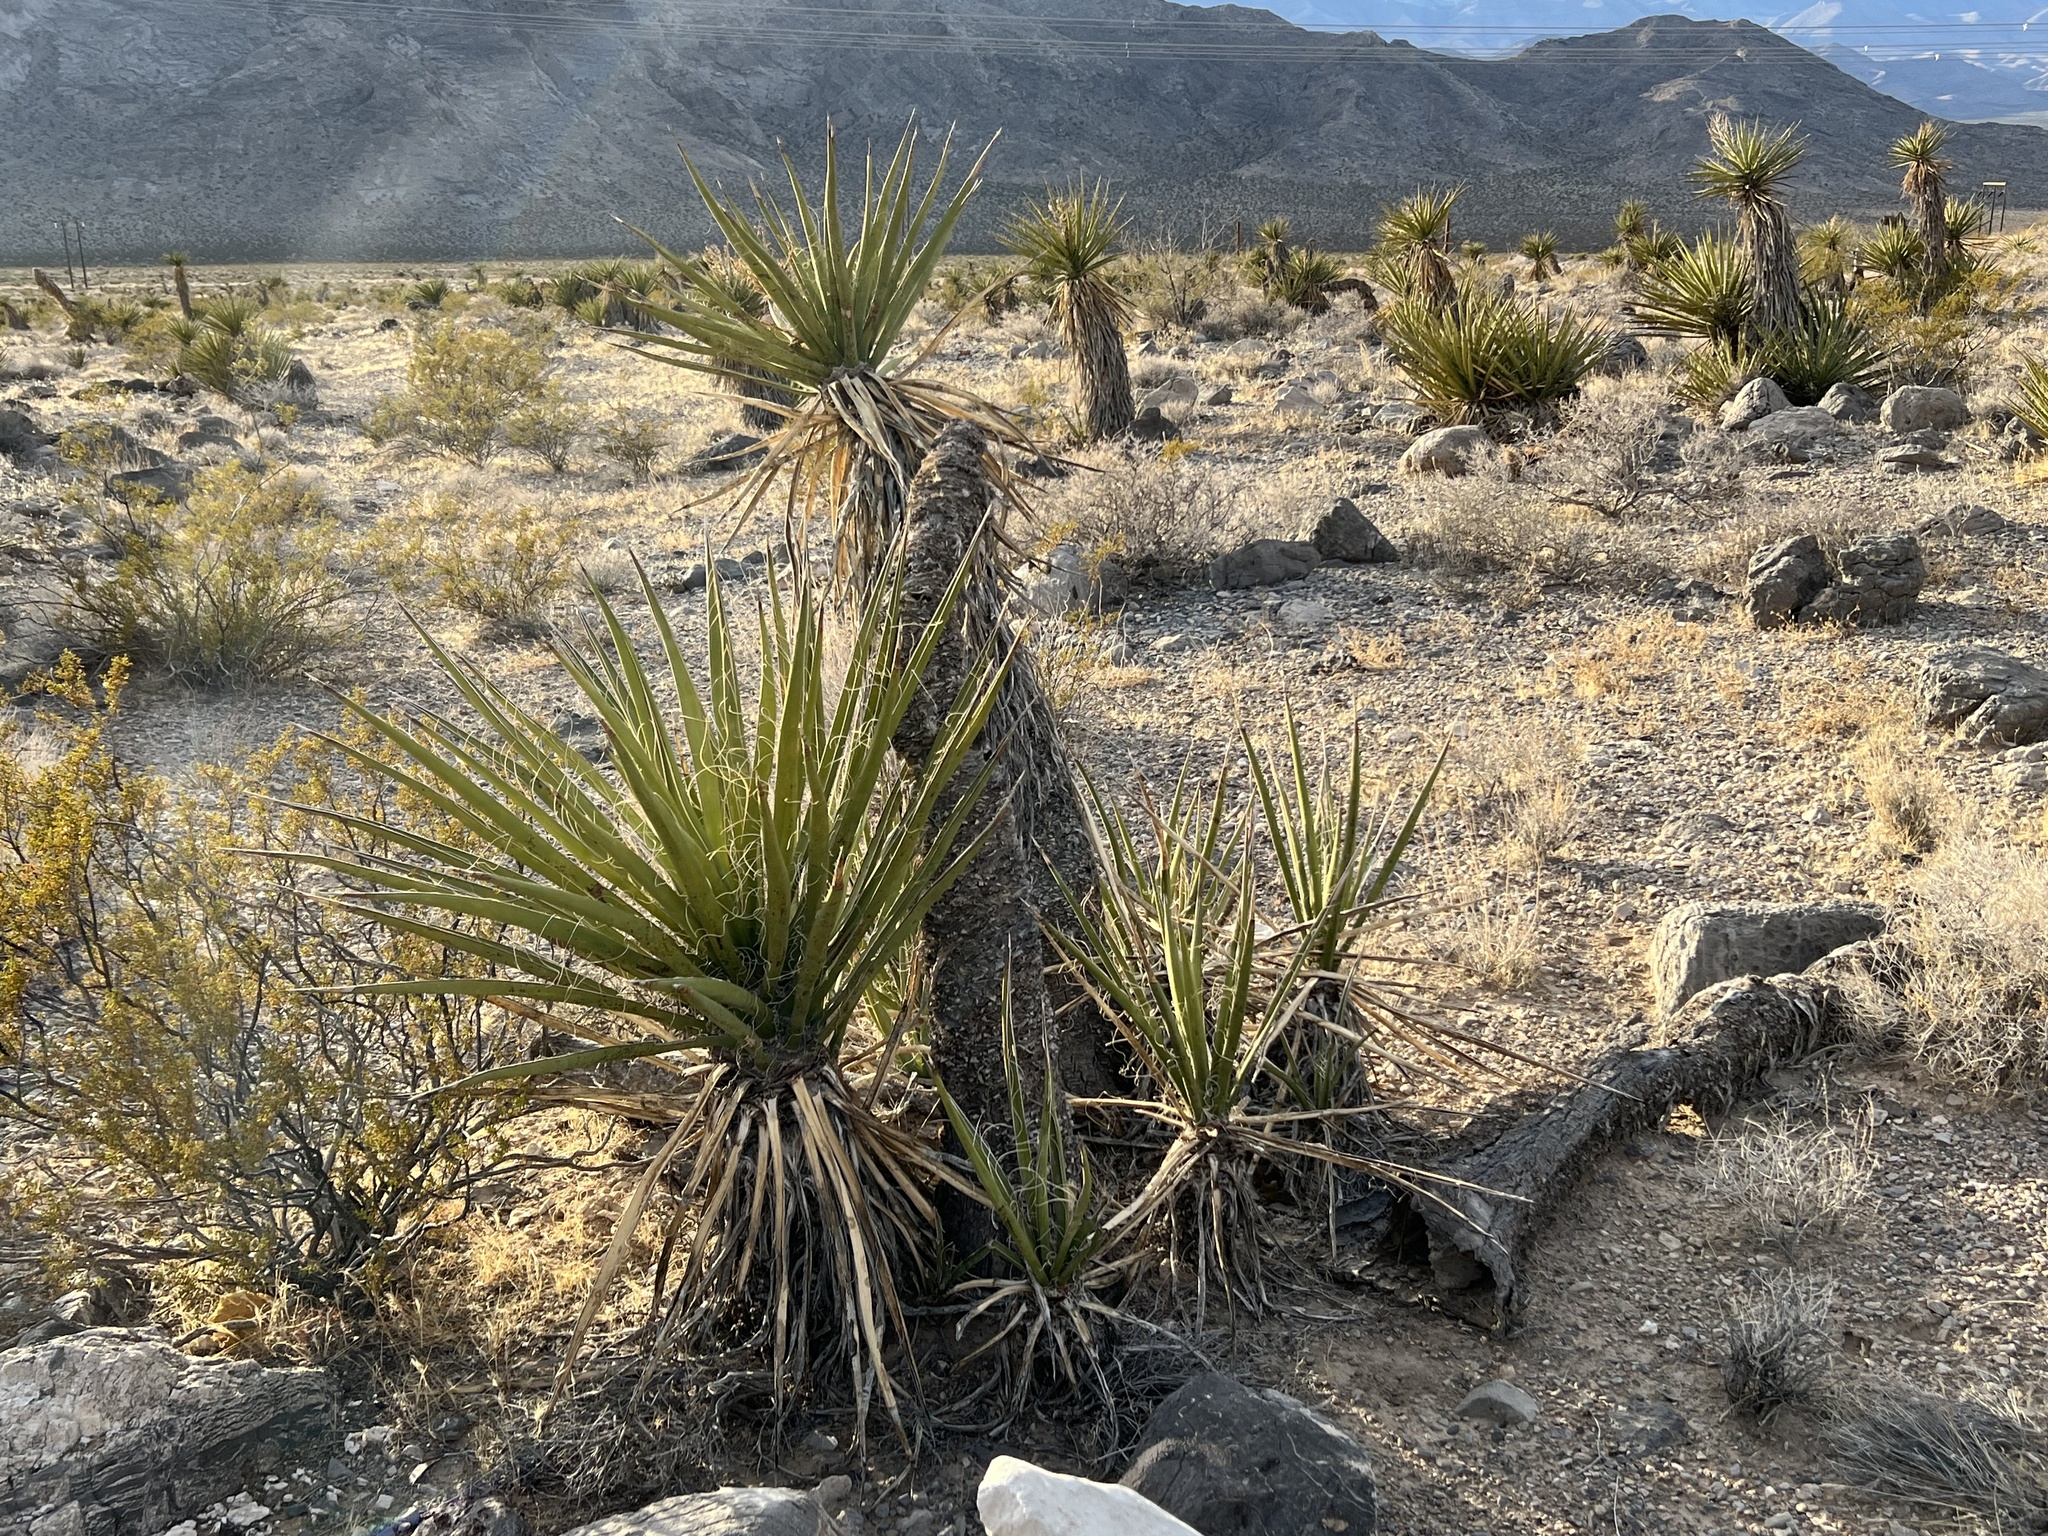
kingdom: Plantae
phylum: Tracheophyta
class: Liliopsida
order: Asparagales
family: Asparagaceae
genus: Yucca
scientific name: Yucca schidigera
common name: Mojave yucca
